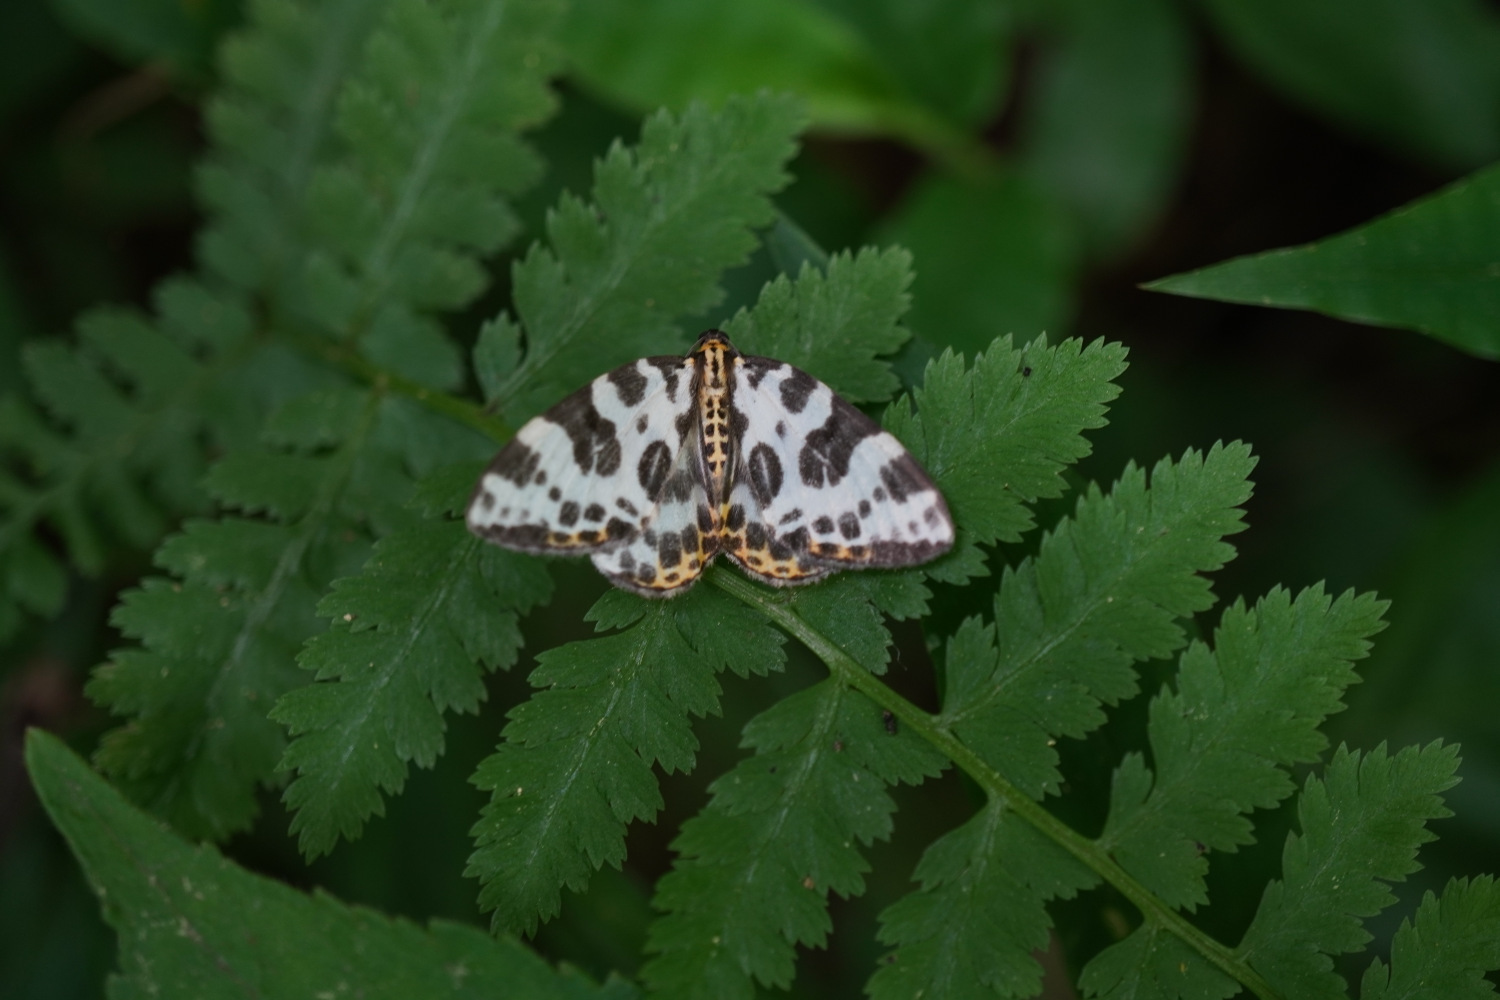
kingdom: Animalia
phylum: Arthropoda
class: Insecta
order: Lepidoptera
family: Geometridae
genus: Calleulype
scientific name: Calleulype whitelyi
